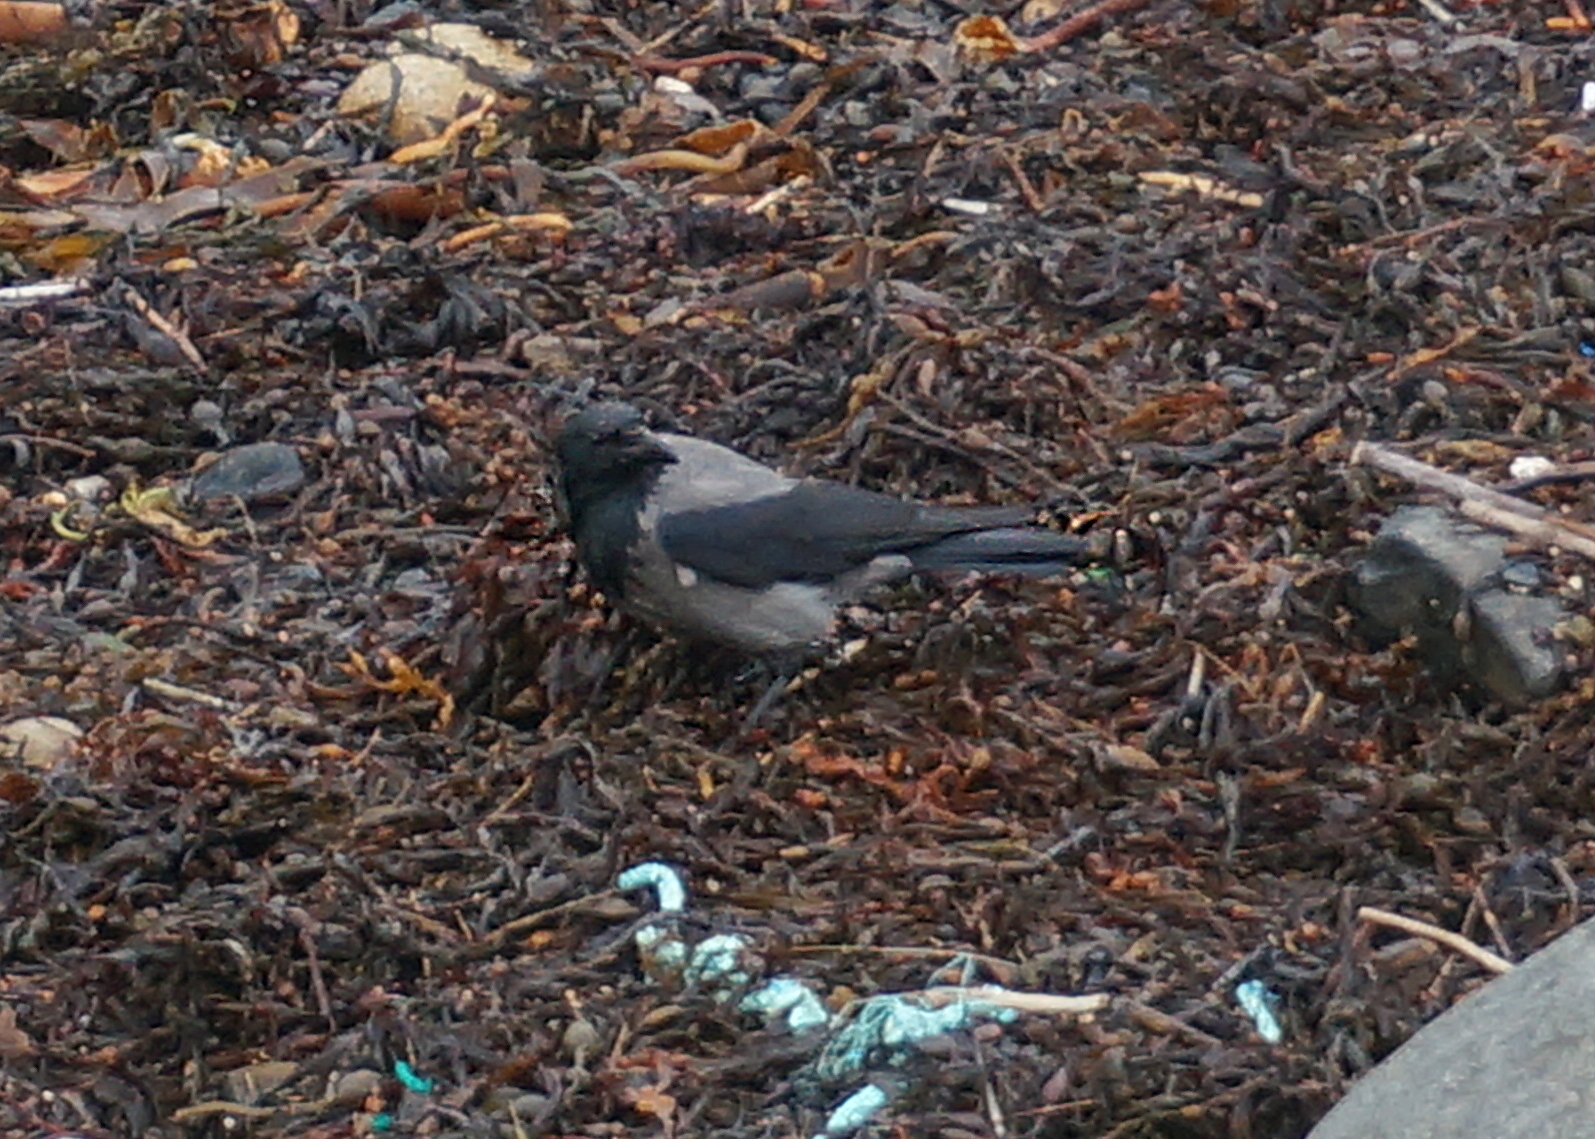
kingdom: Animalia
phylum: Chordata
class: Aves
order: Passeriformes
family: Corvidae
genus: Corvus
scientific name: Corvus cornix
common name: Hooded crow
